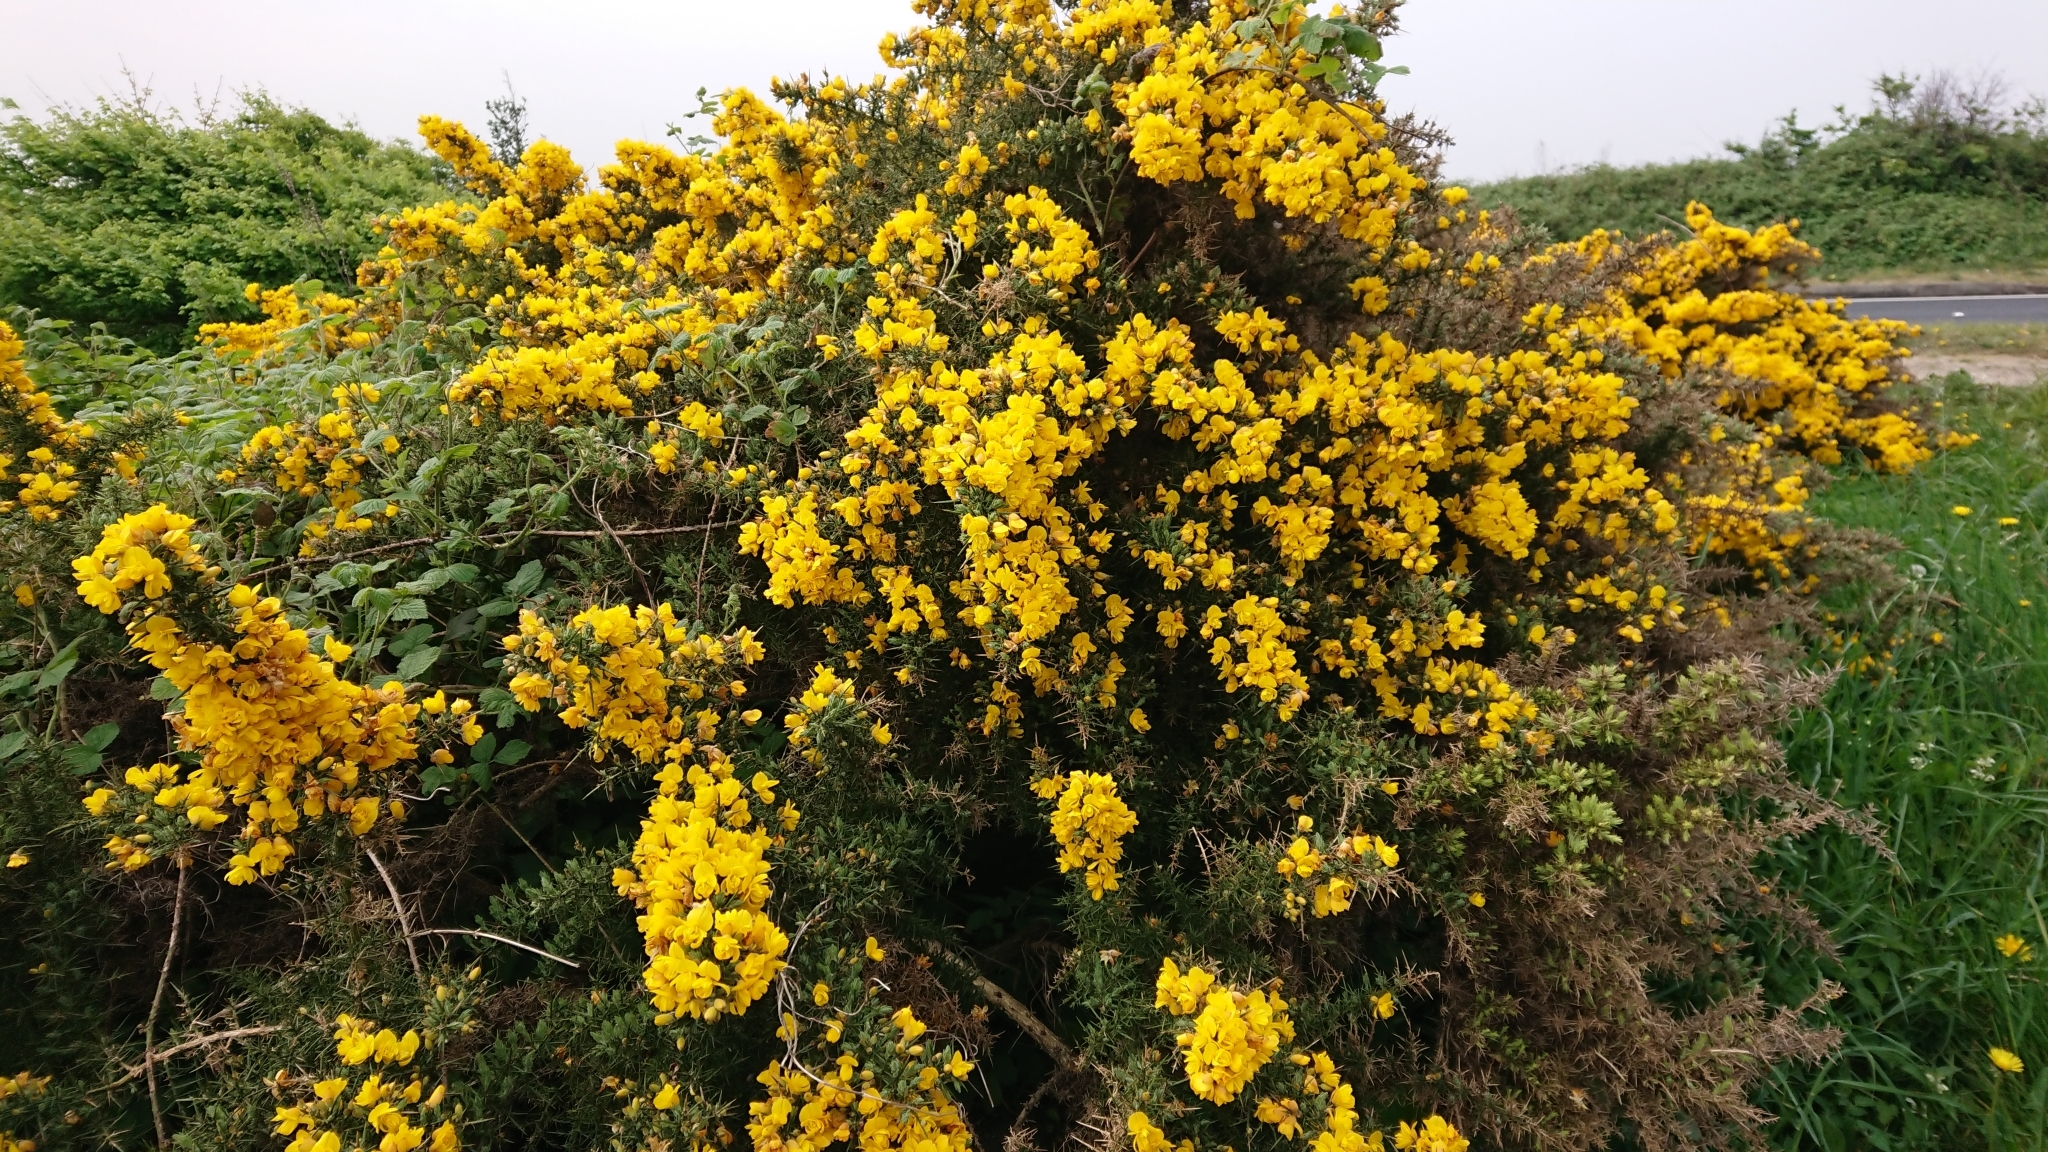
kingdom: Plantae
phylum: Tracheophyta
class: Magnoliopsida
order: Fabales
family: Fabaceae
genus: Ulex
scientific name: Ulex europaeus
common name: Common gorse
